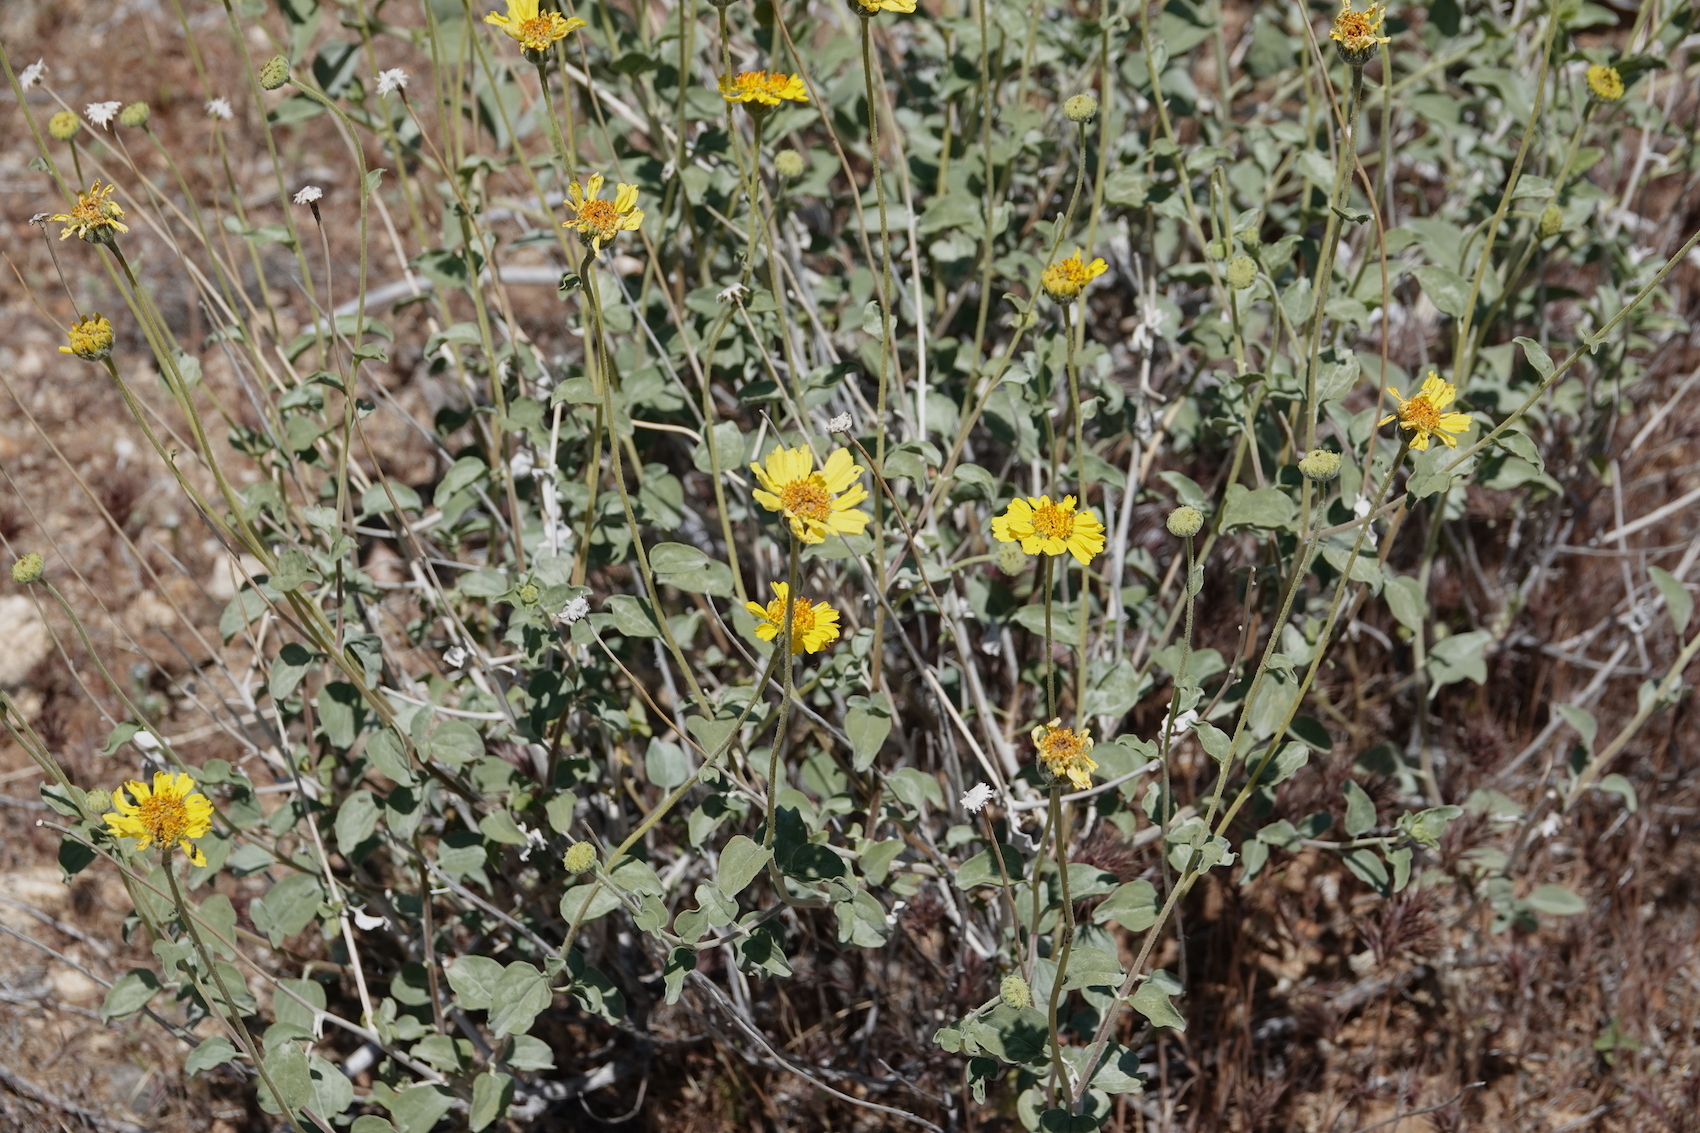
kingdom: Plantae
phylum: Tracheophyta
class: Magnoliopsida
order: Asterales
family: Asteraceae
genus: Encelia
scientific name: Encelia actoni
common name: Acton encelia
